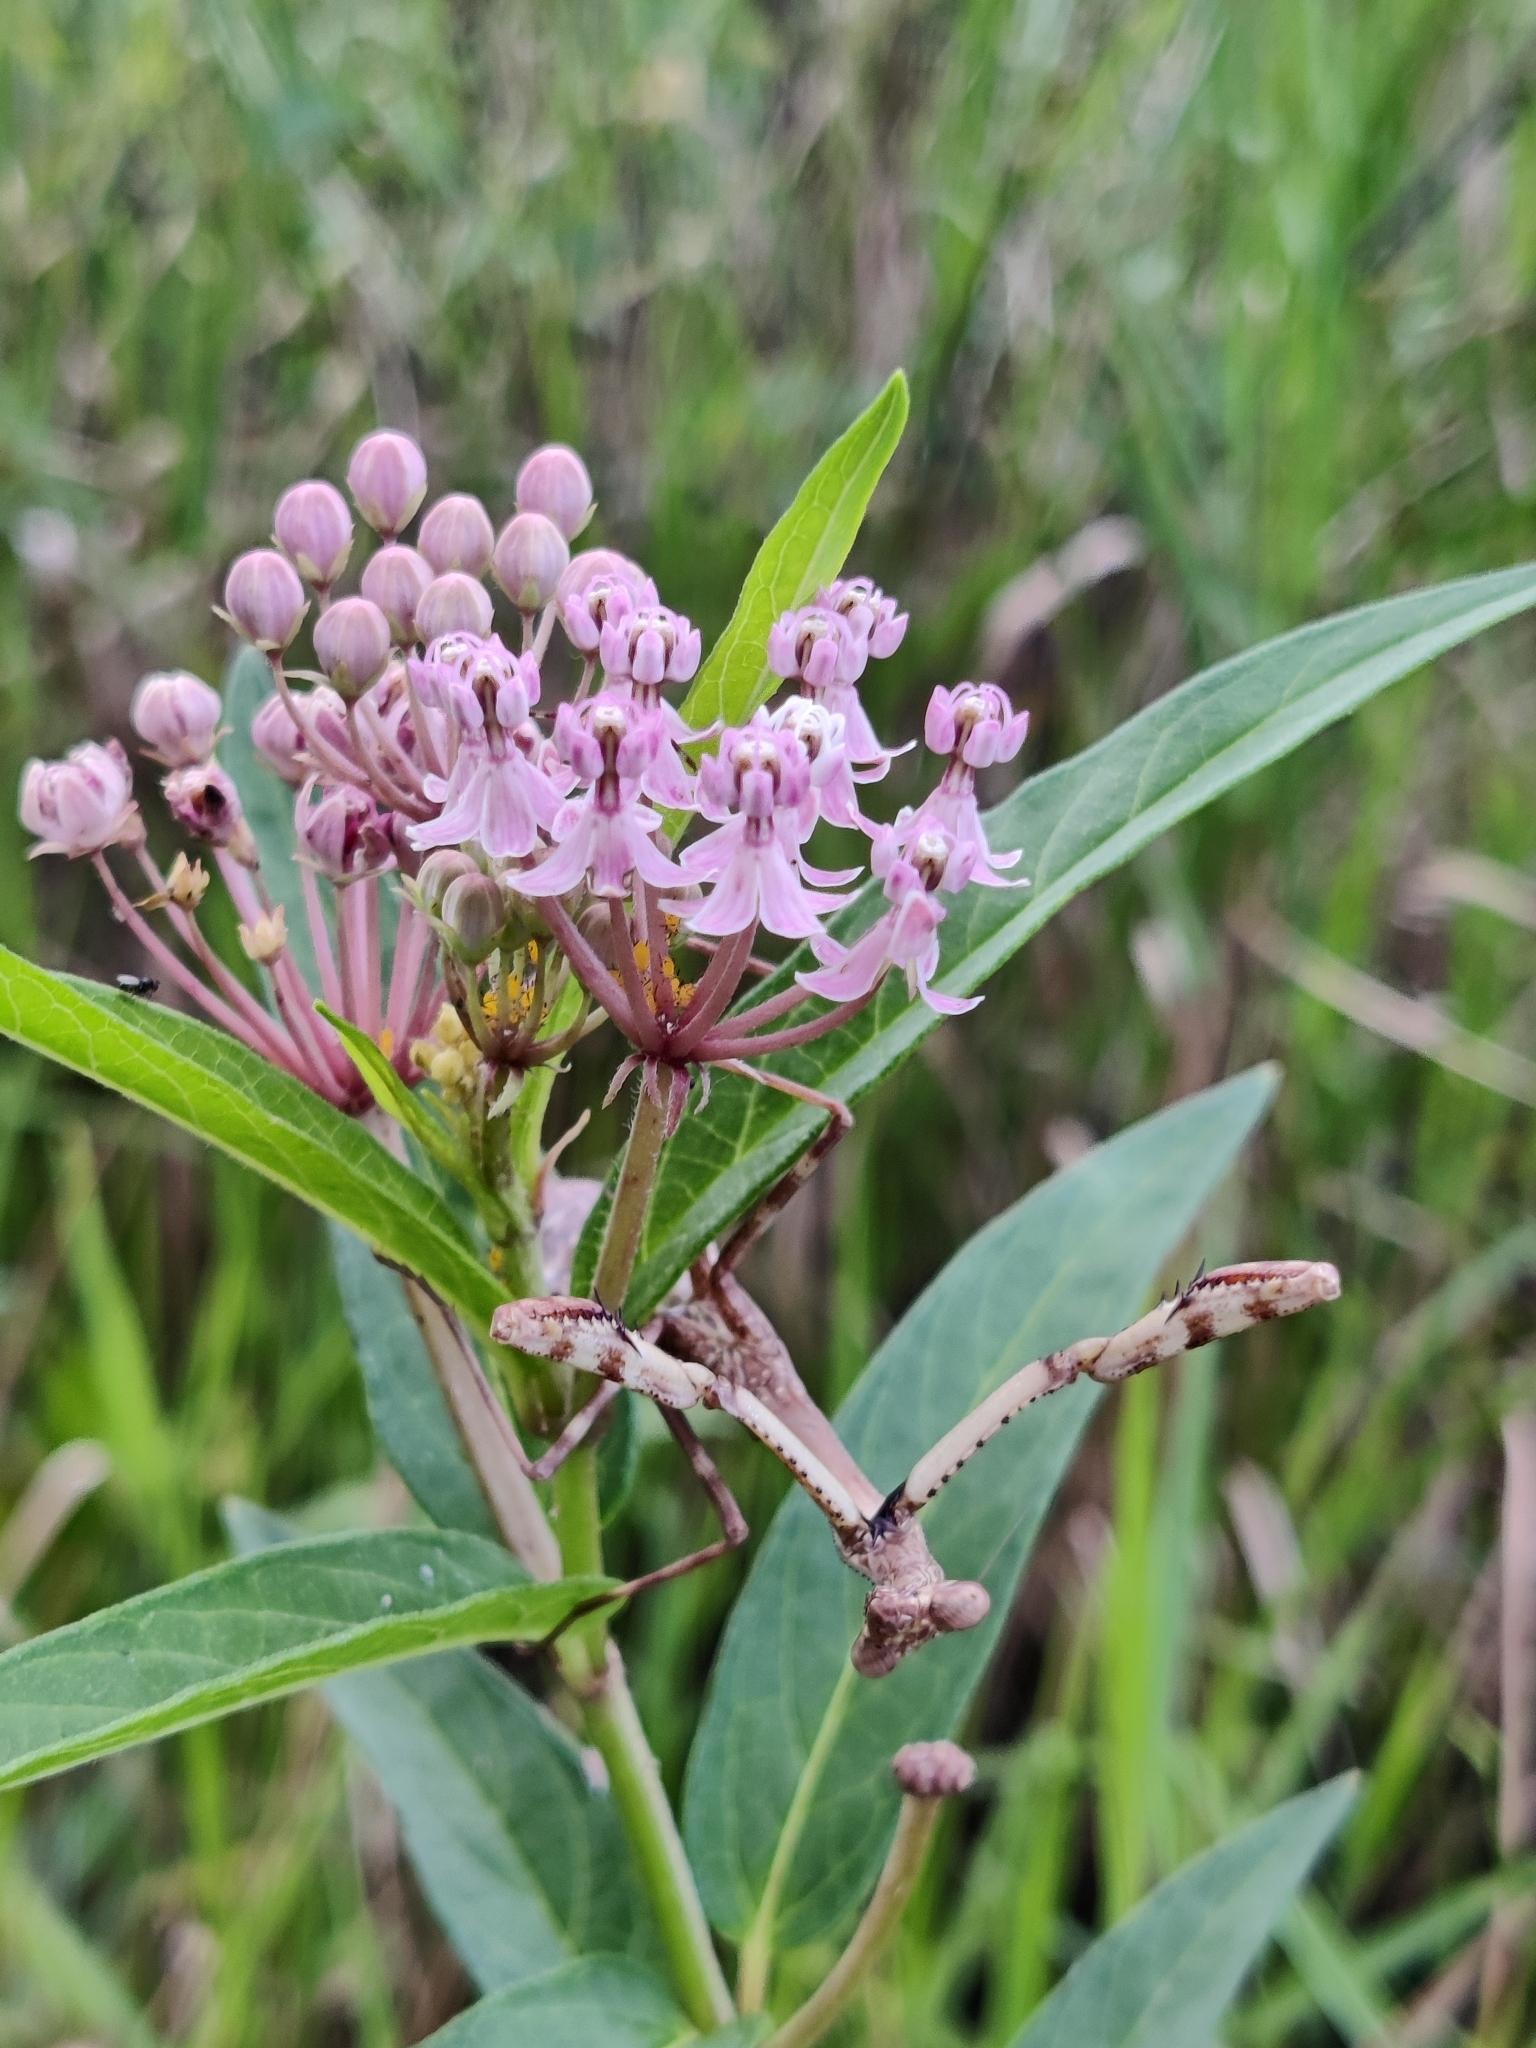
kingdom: Animalia
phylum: Arthropoda
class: Insecta
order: Mantodea
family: Mantidae
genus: Stagmomantis
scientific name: Stagmomantis carolina
